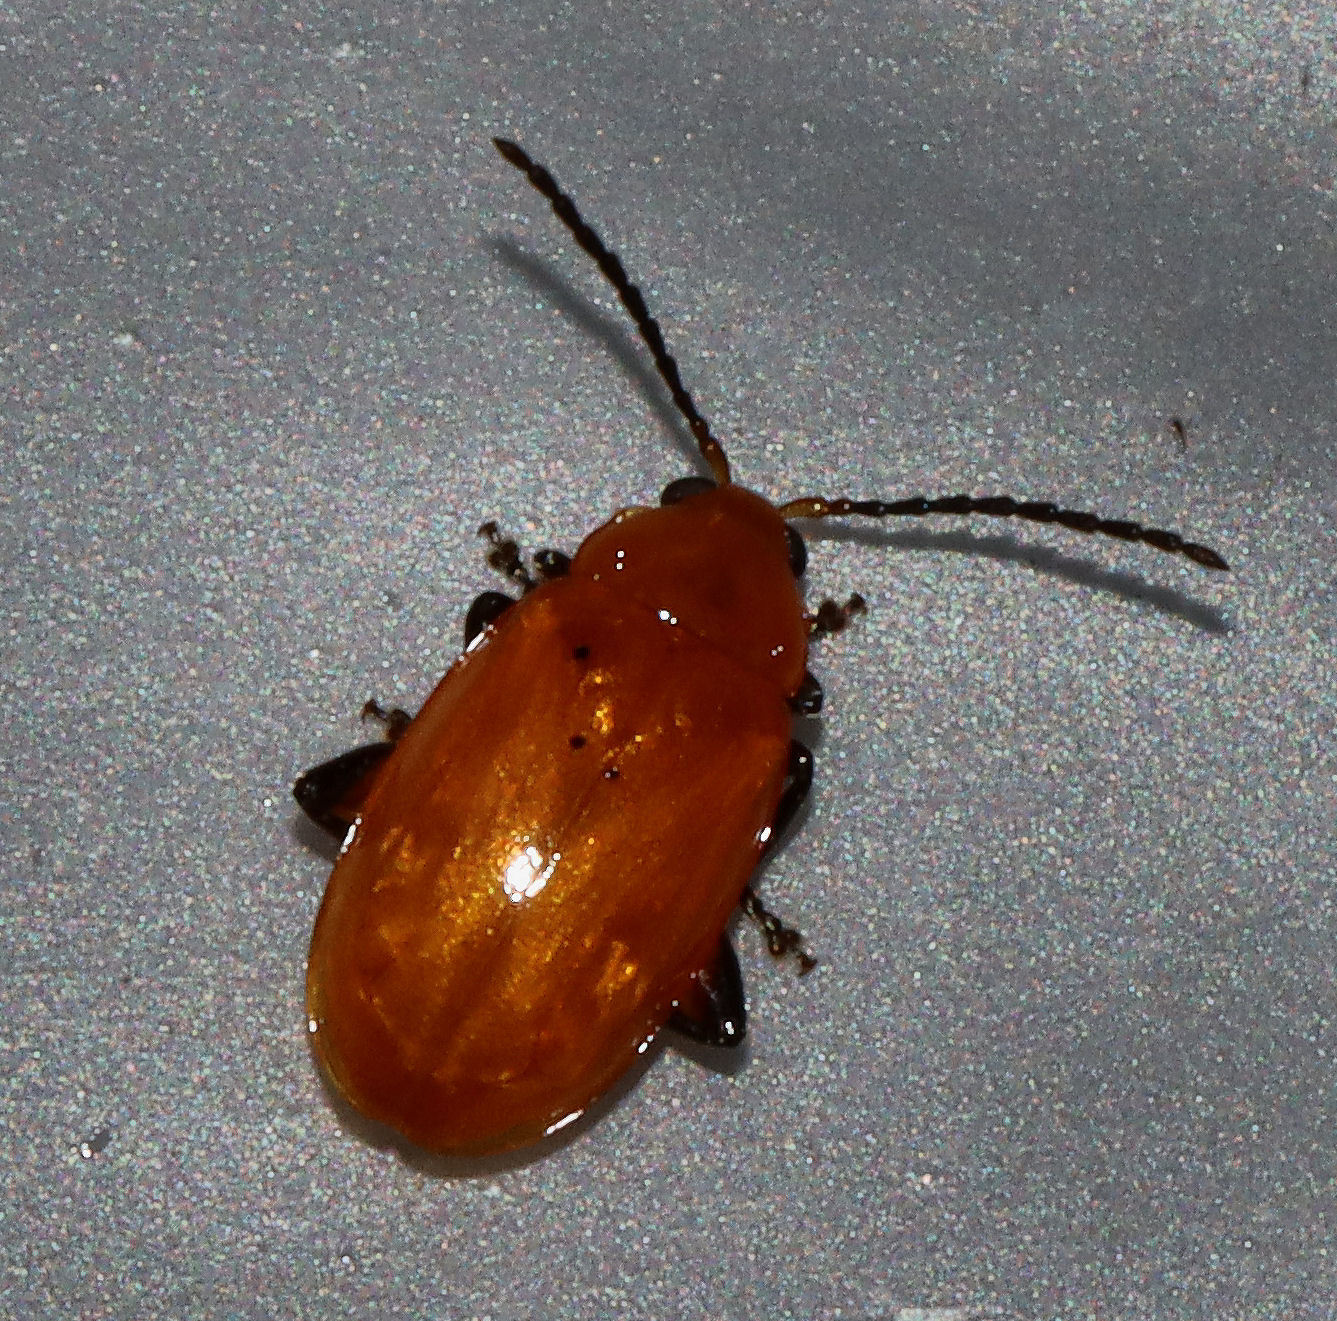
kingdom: Animalia
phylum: Arthropoda
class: Insecta
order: Coleoptera
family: Chrysomelidae
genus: Parchicola
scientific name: Parchicola tibialis
